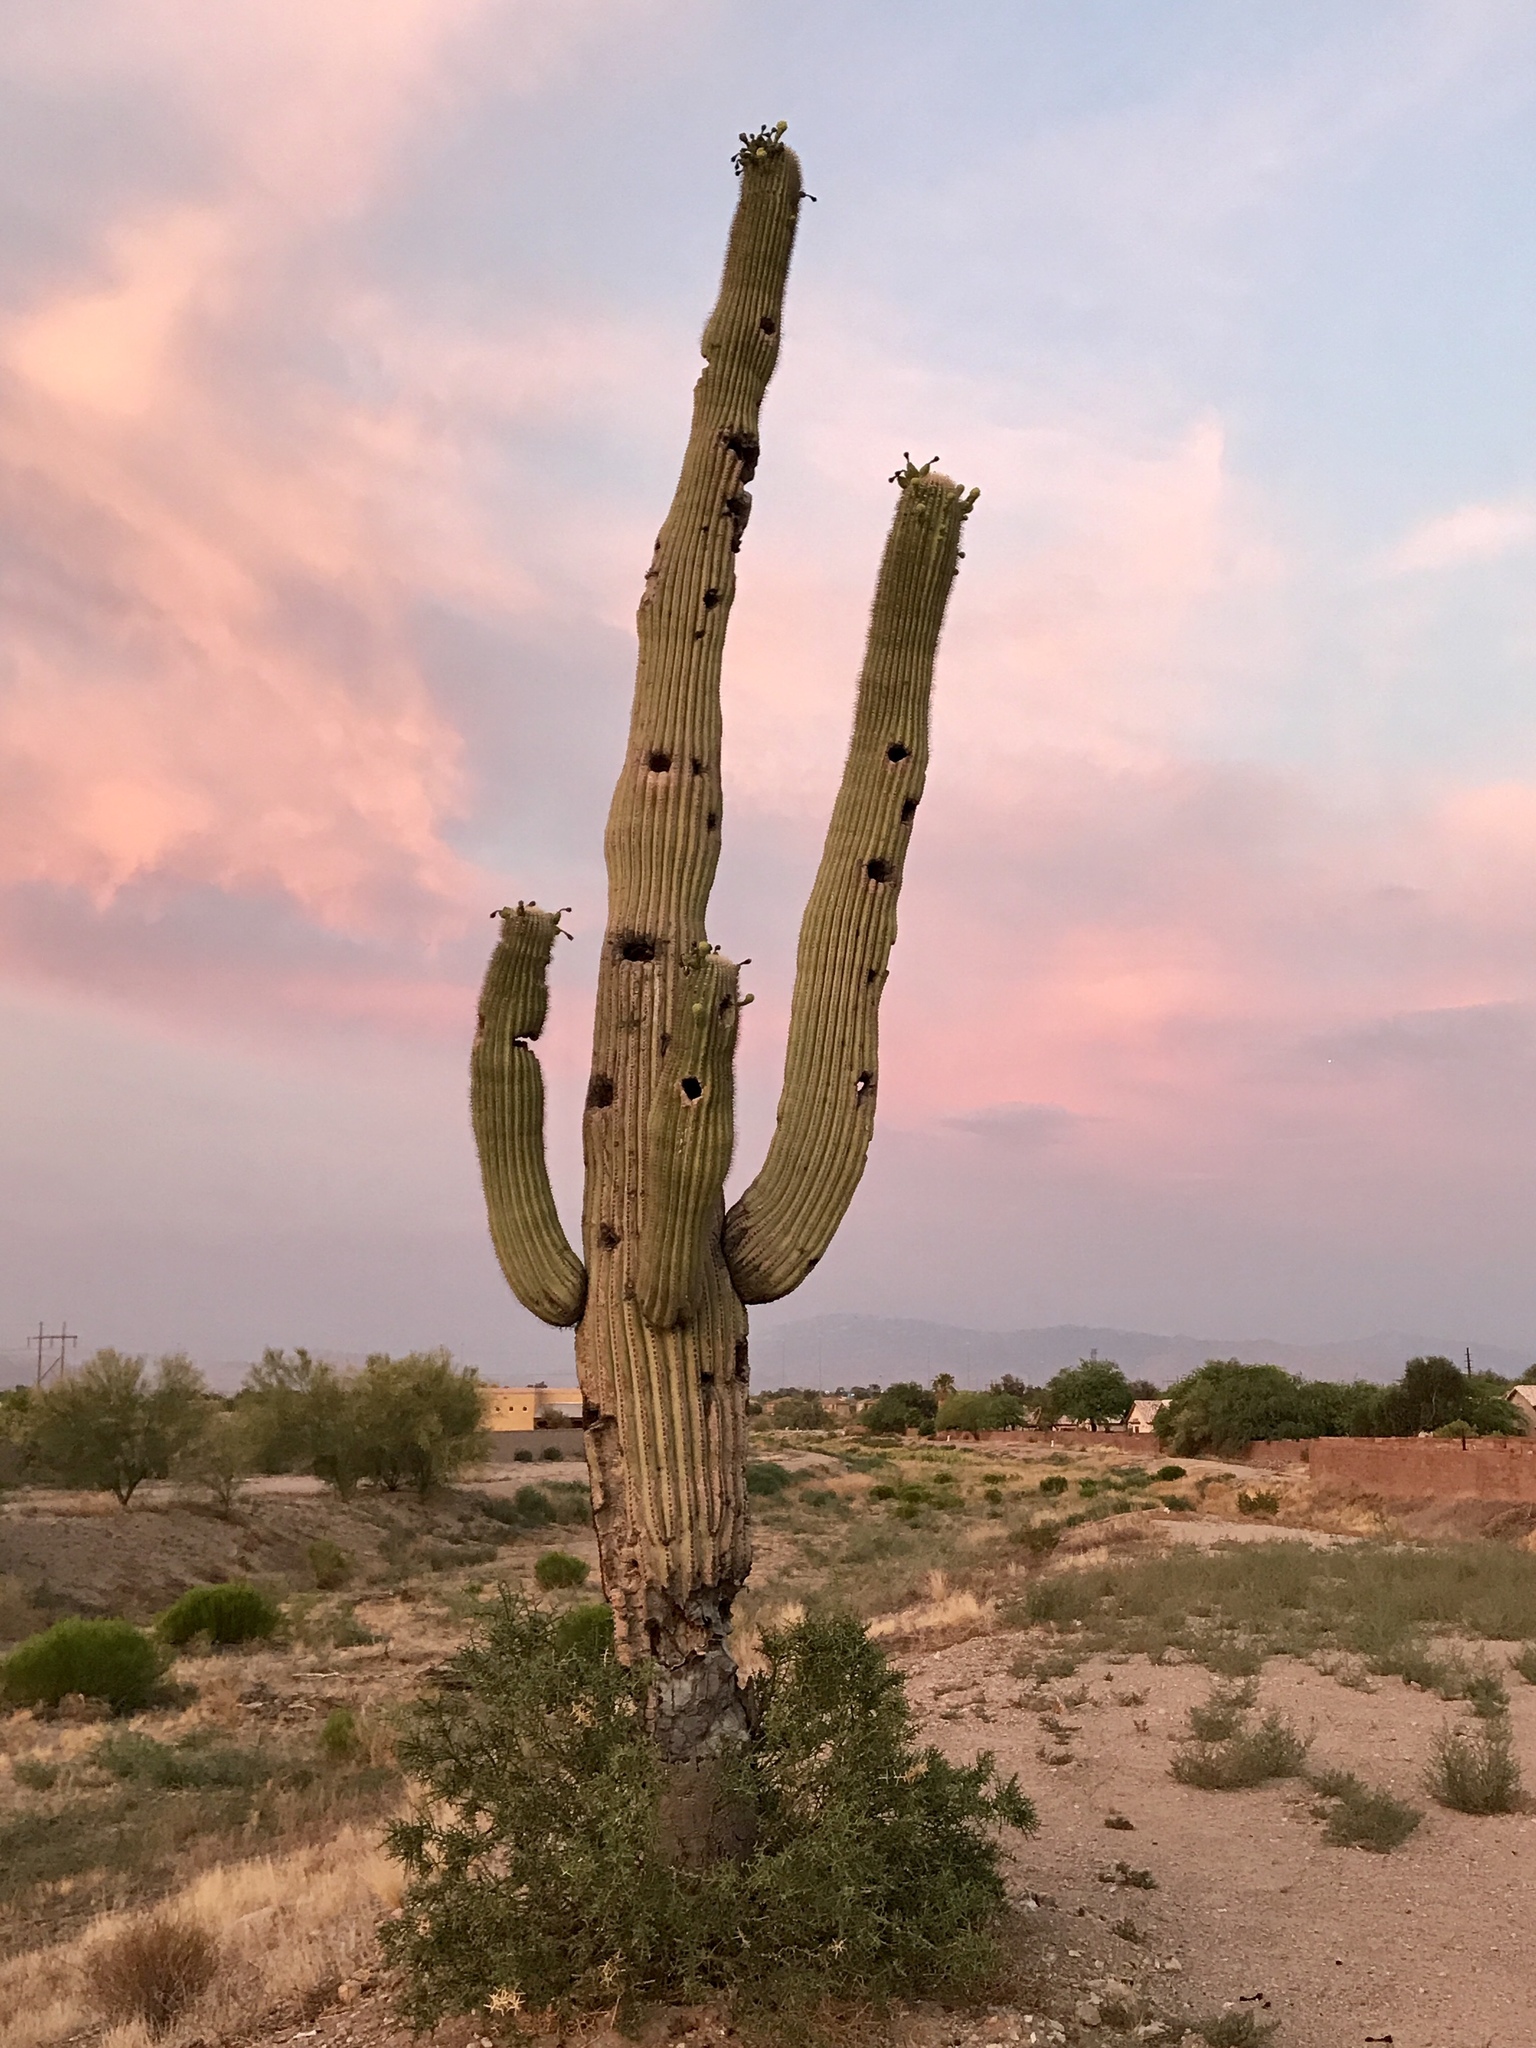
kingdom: Plantae
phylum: Tracheophyta
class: Magnoliopsida
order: Caryophyllales
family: Cactaceae
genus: Carnegiea
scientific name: Carnegiea gigantea
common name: Saguaro
